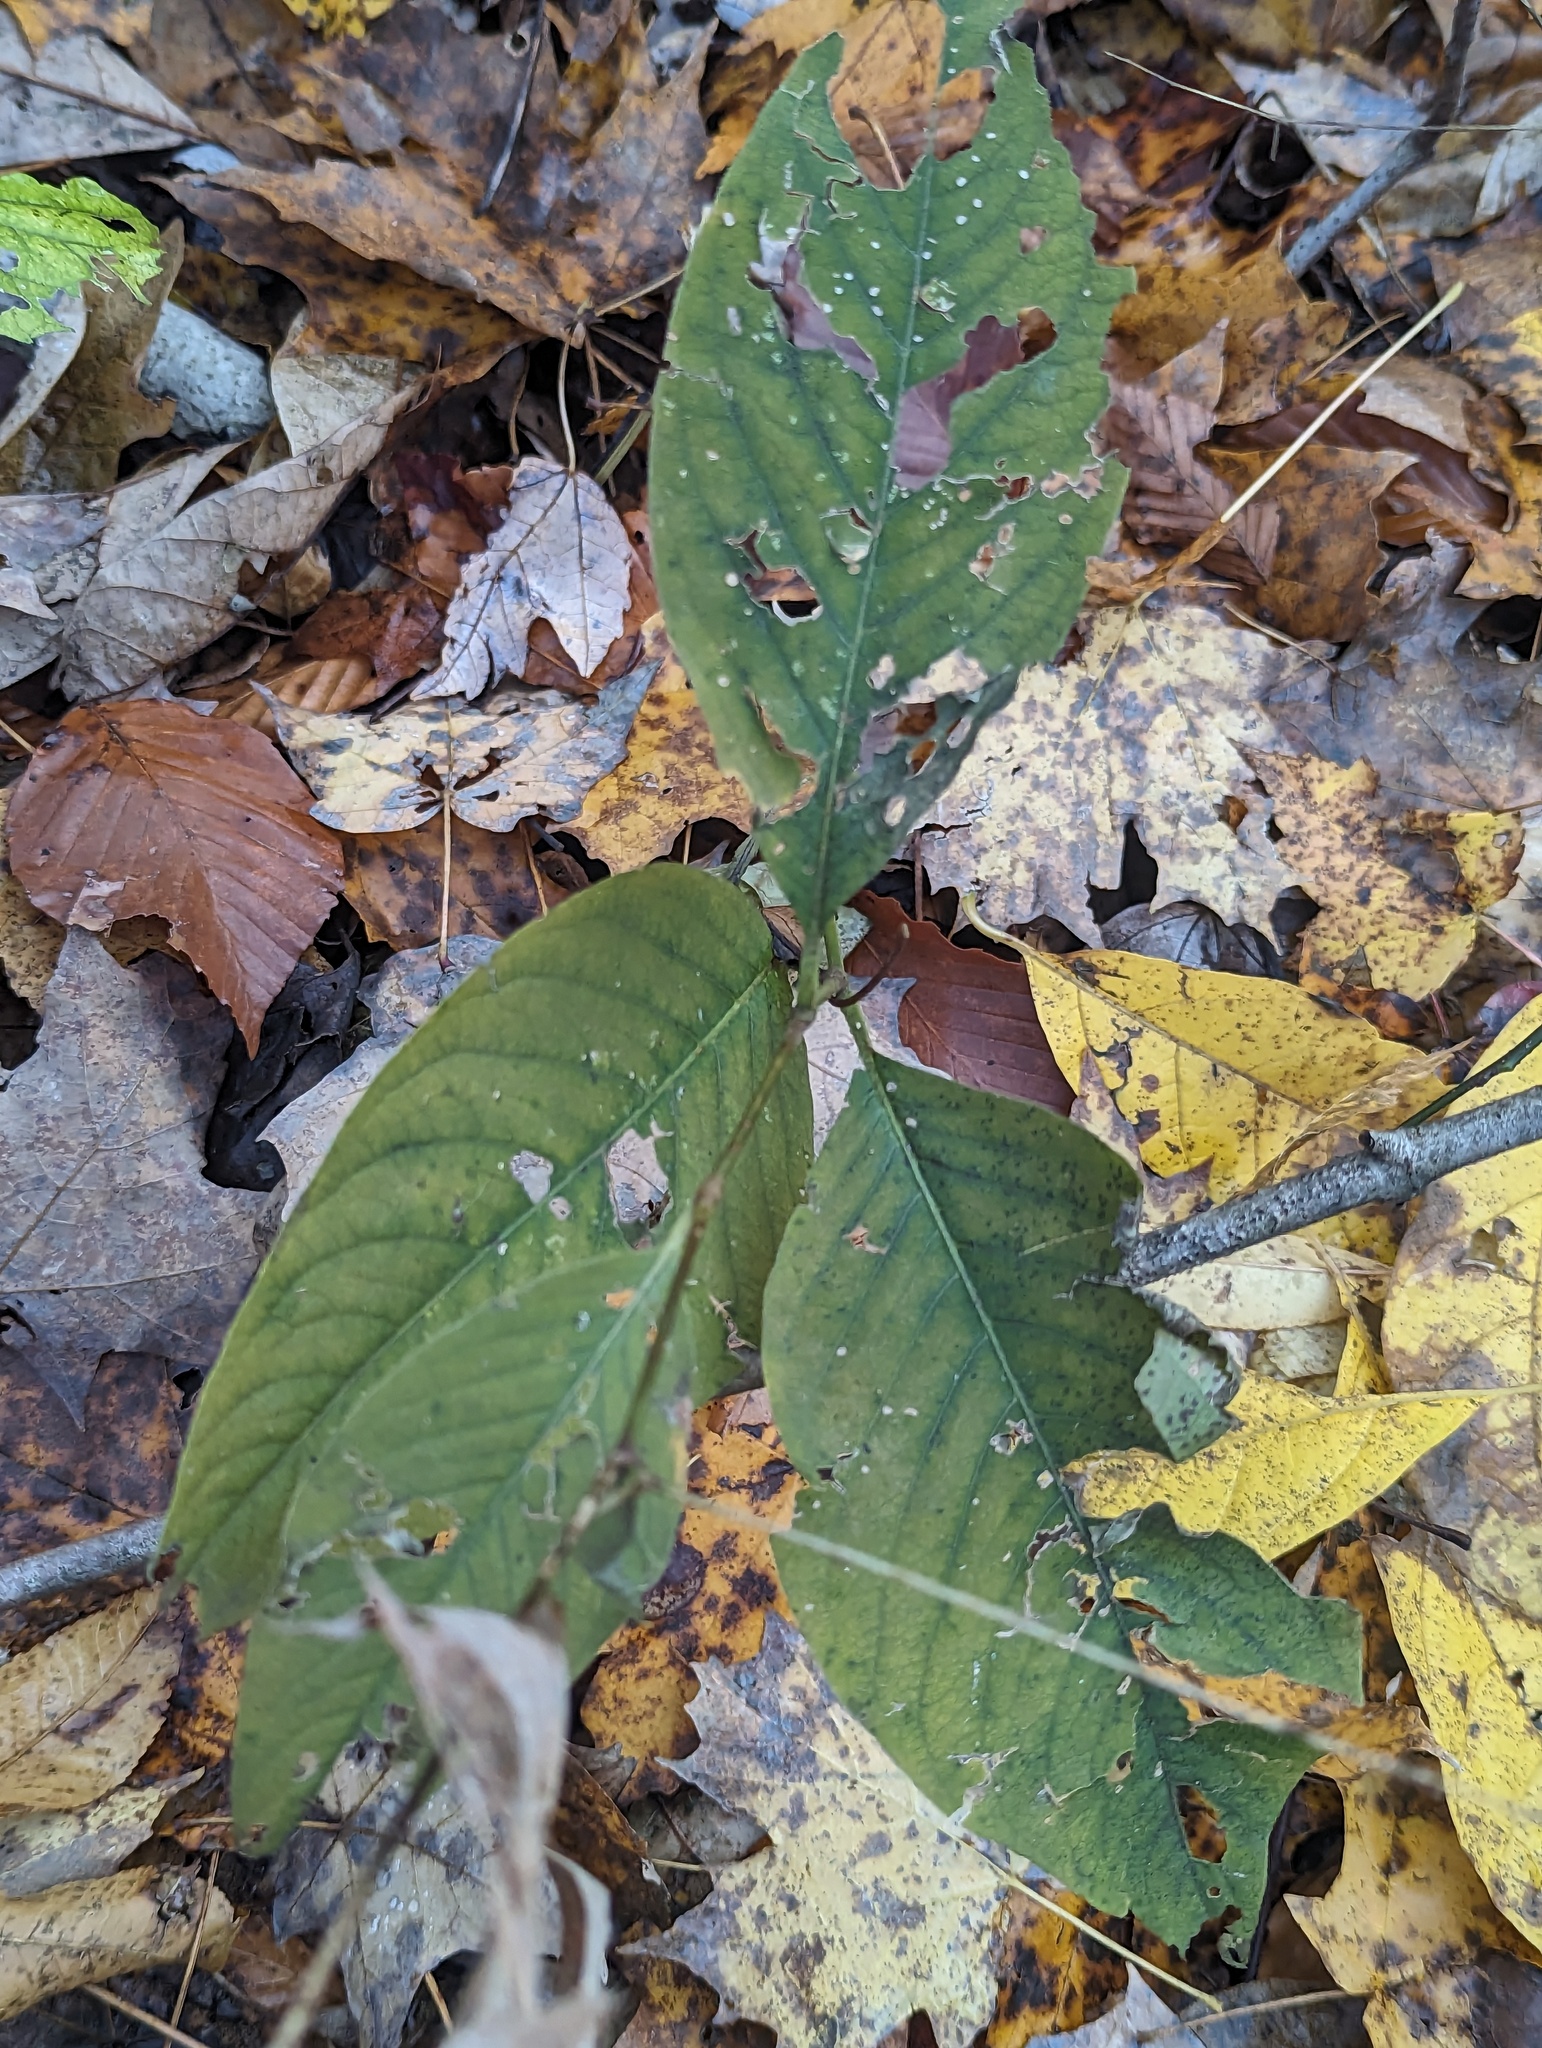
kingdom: Plantae
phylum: Tracheophyta
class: Magnoliopsida
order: Caryophyllales
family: Polygonaceae
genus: Persicaria
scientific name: Persicaria virginiana
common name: Jumpseed
